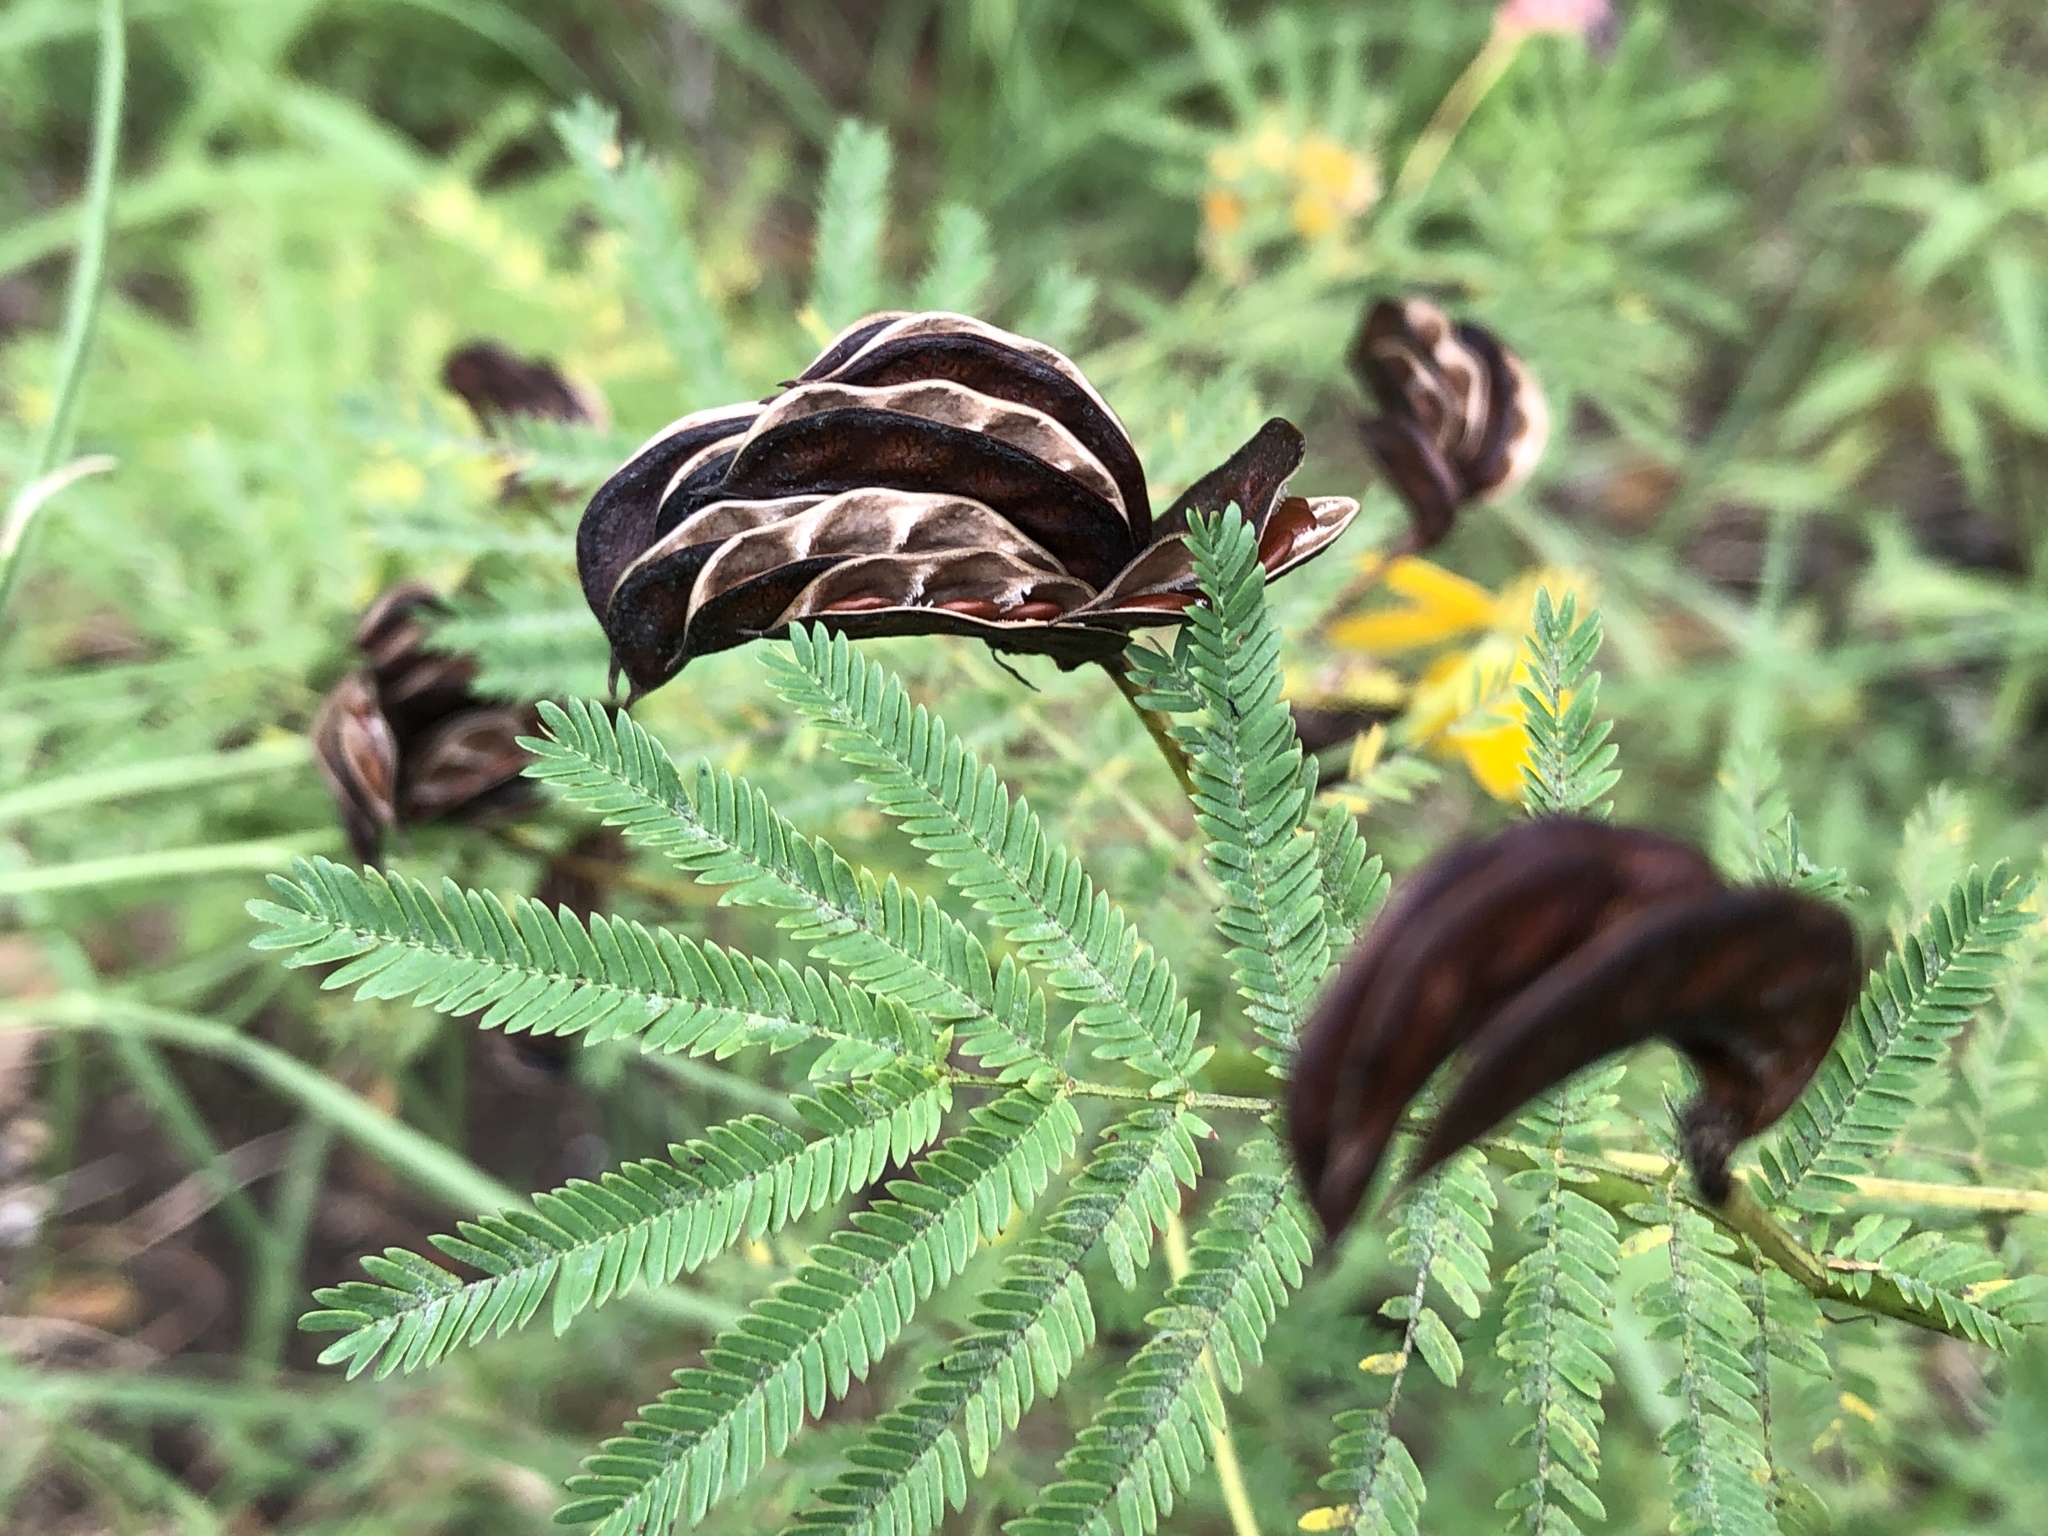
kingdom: Plantae
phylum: Tracheophyta
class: Magnoliopsida
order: Fabales
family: Fabaceae
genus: Desmanthus
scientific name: Desmanthus illinoensis
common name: Illinois bundle-flower
